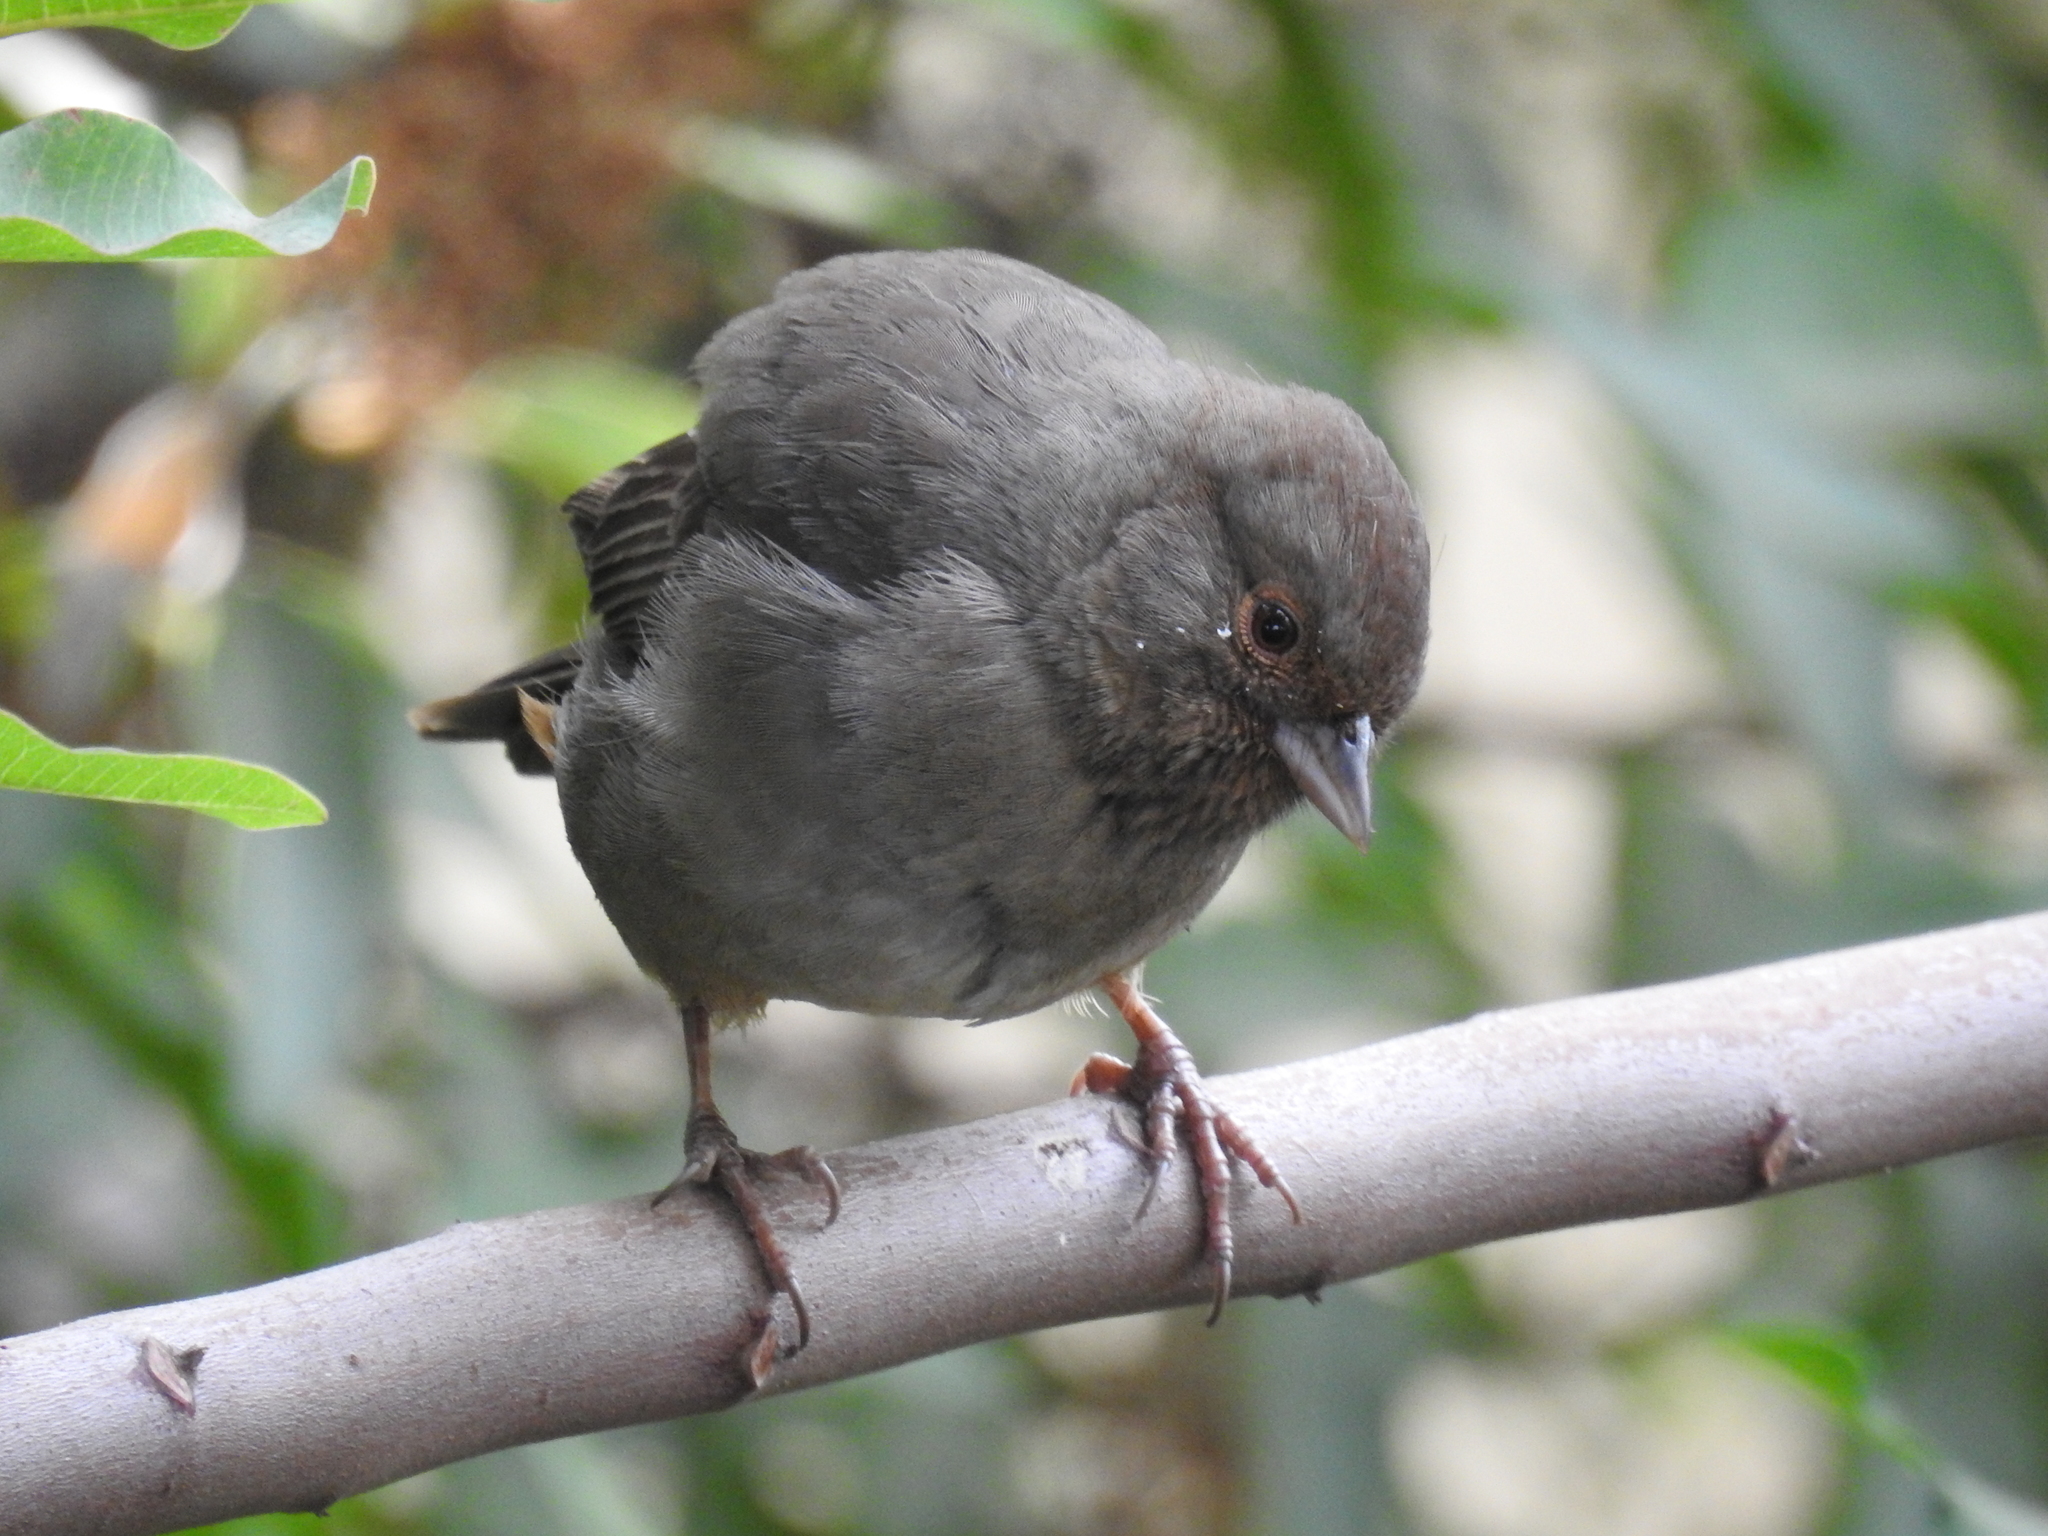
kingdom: Animalia
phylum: Chordata
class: Aves
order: Passeriformes
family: Passerellidae
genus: Melozone
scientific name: Melozone crissalis
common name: California towhee
